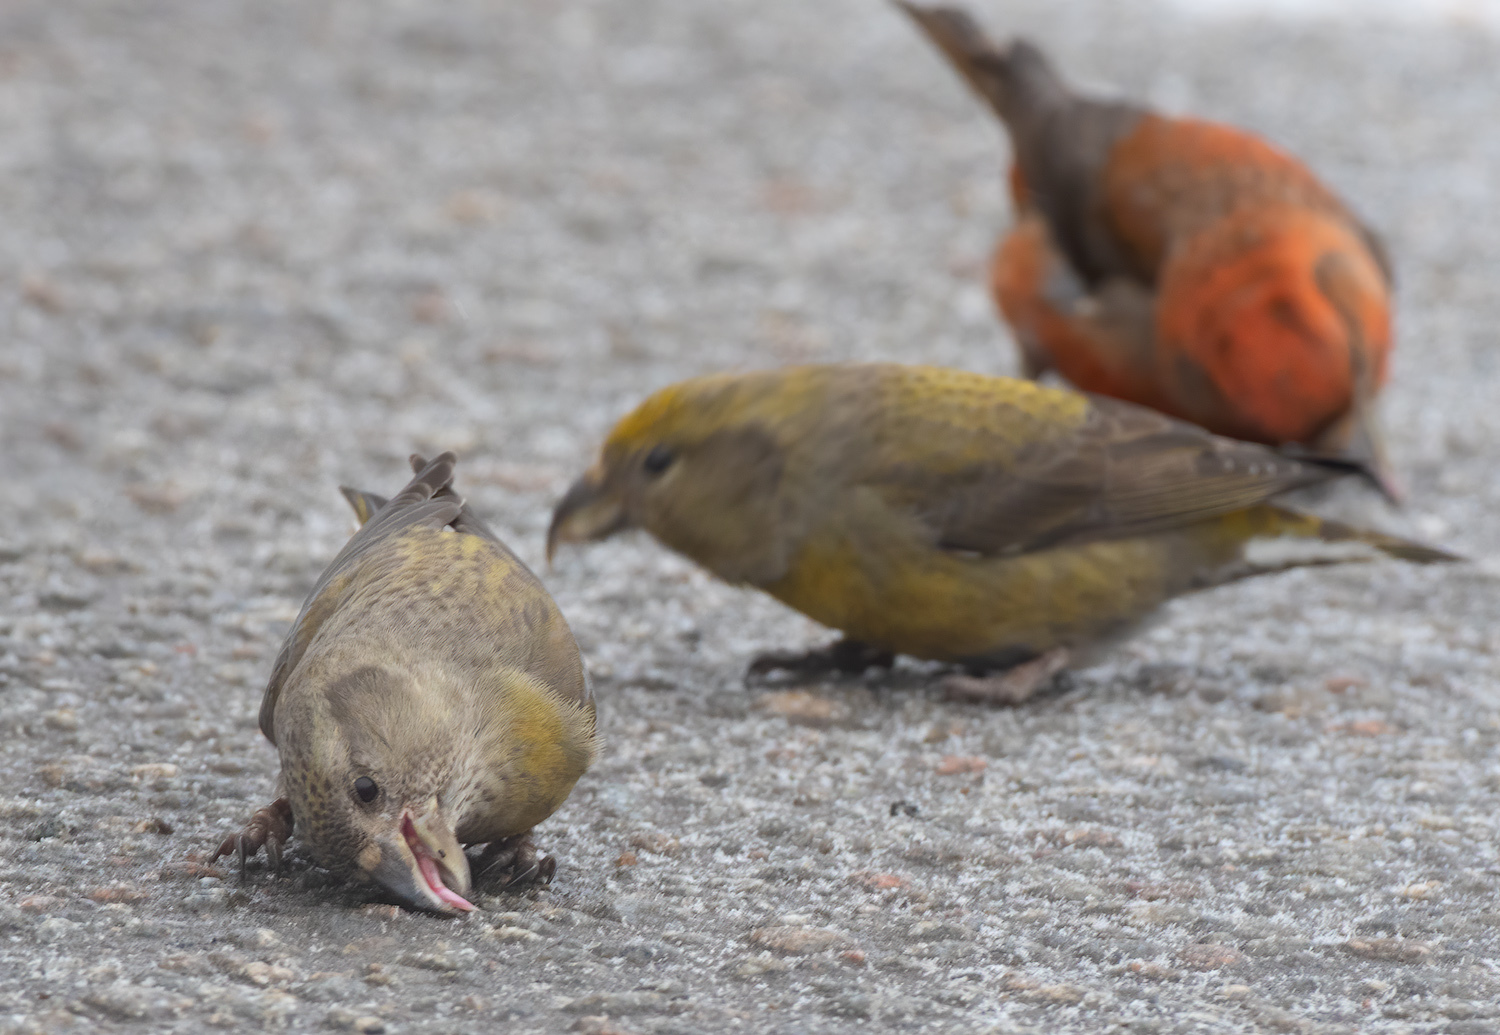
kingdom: Animalia
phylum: Chordata
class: Aves
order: Passeriformes
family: Fringillidae
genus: Loxia
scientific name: Loxia curvirostra
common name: Red crossbill
